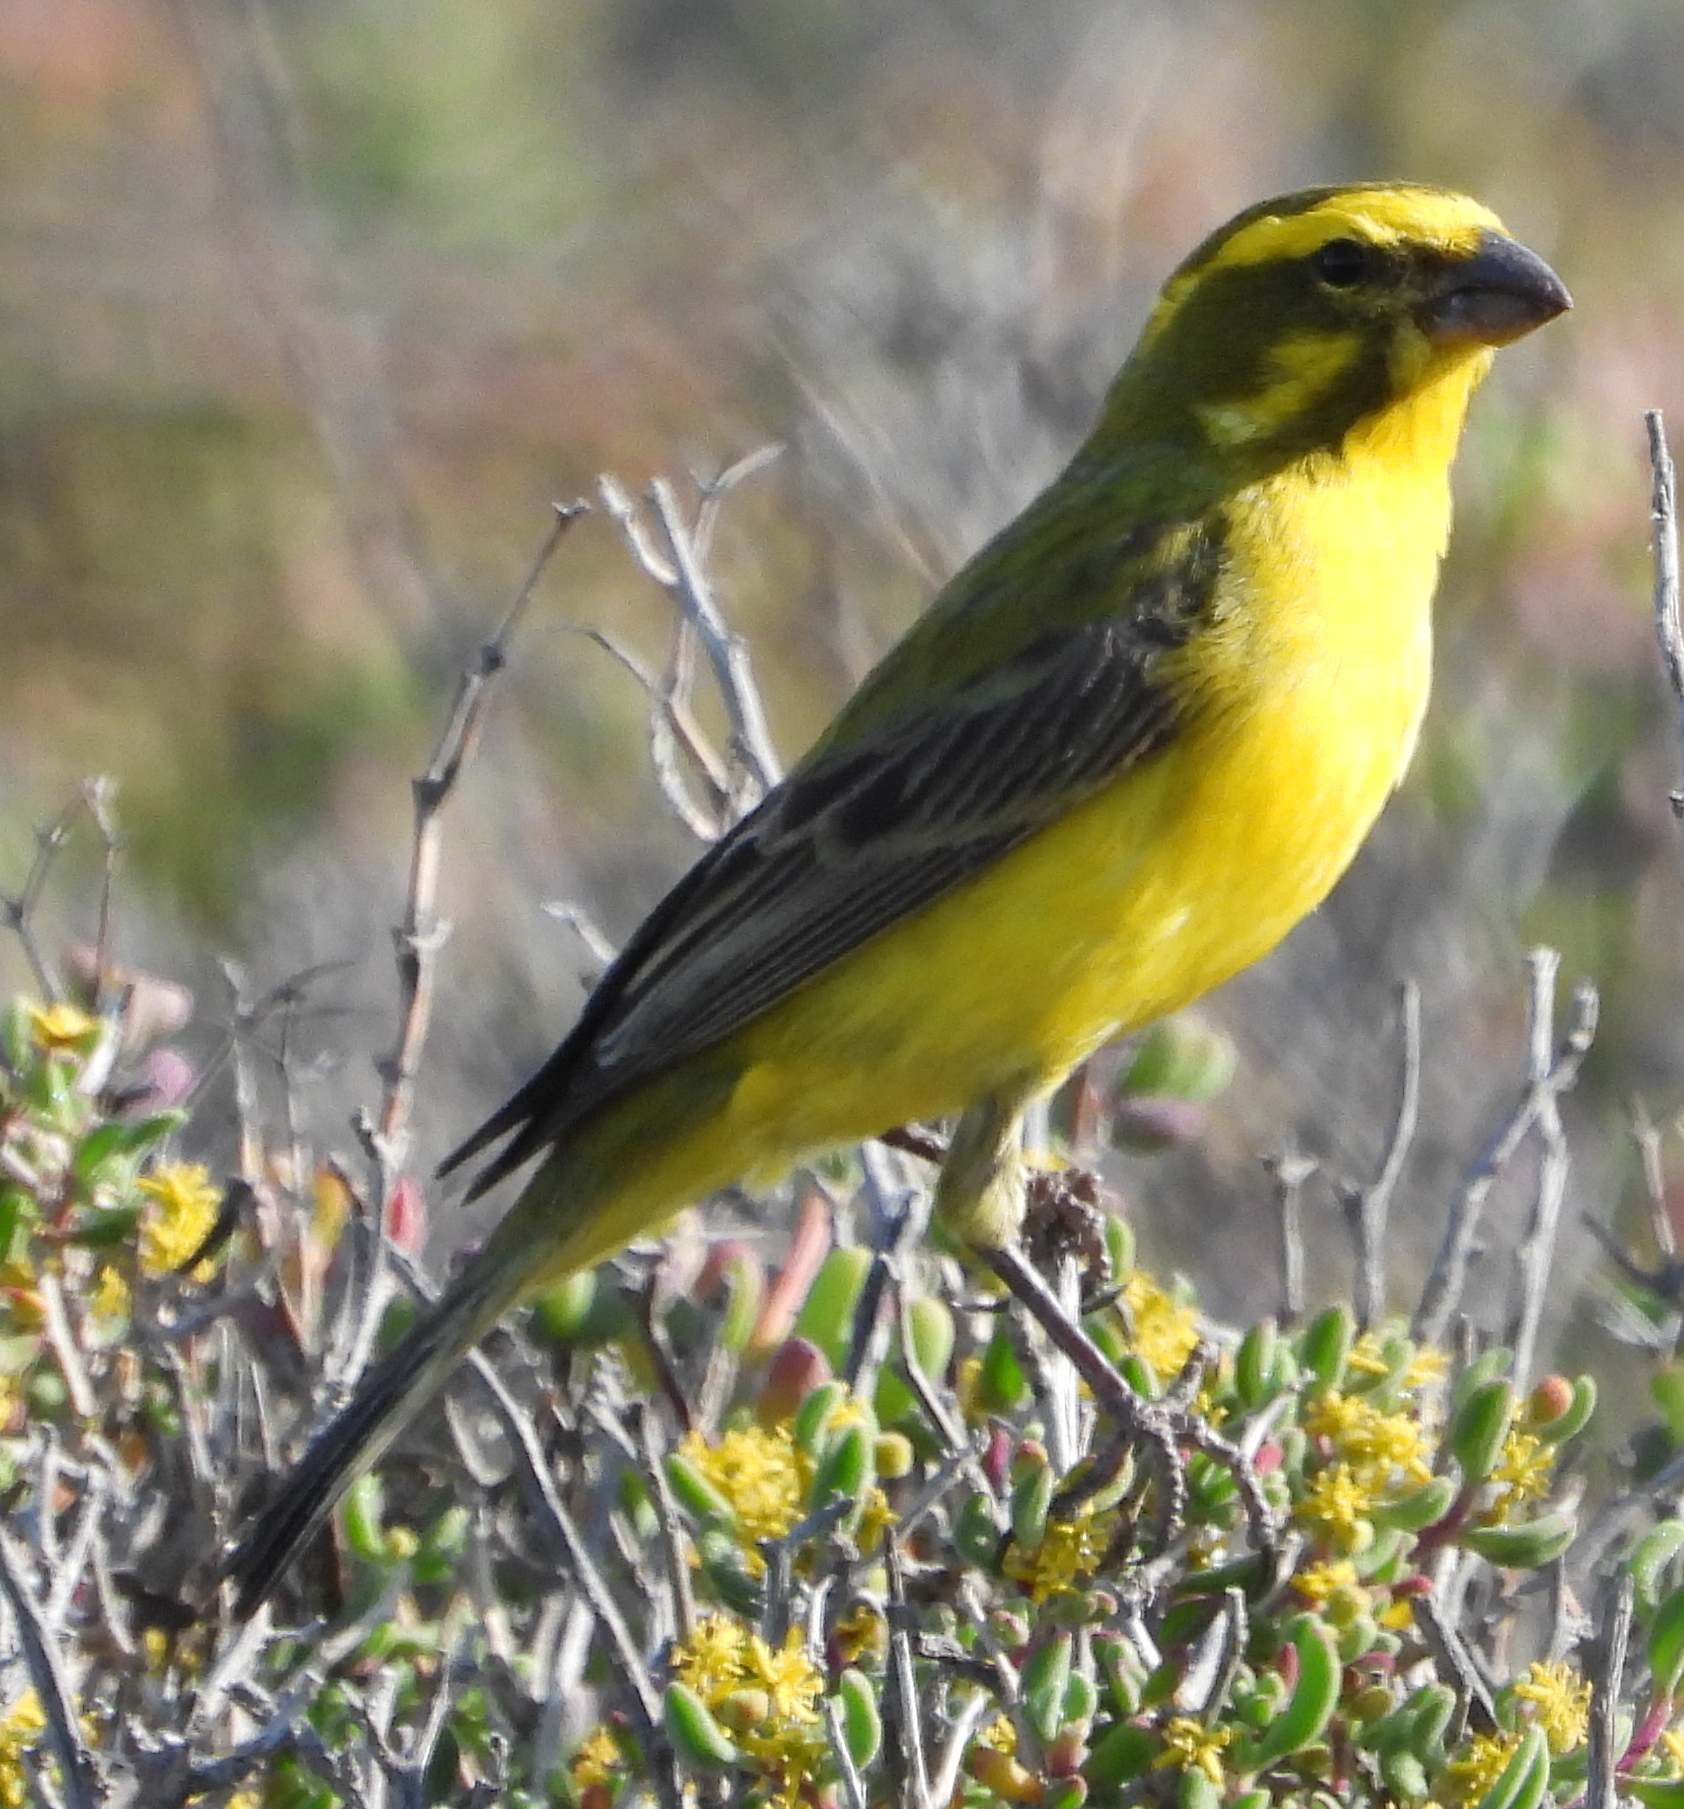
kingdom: Animalia
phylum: Chordata
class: Aves
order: Passeriformes
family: Fringillidae
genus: Crithagra
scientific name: Crithagra flaviventris
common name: Yellow canary
